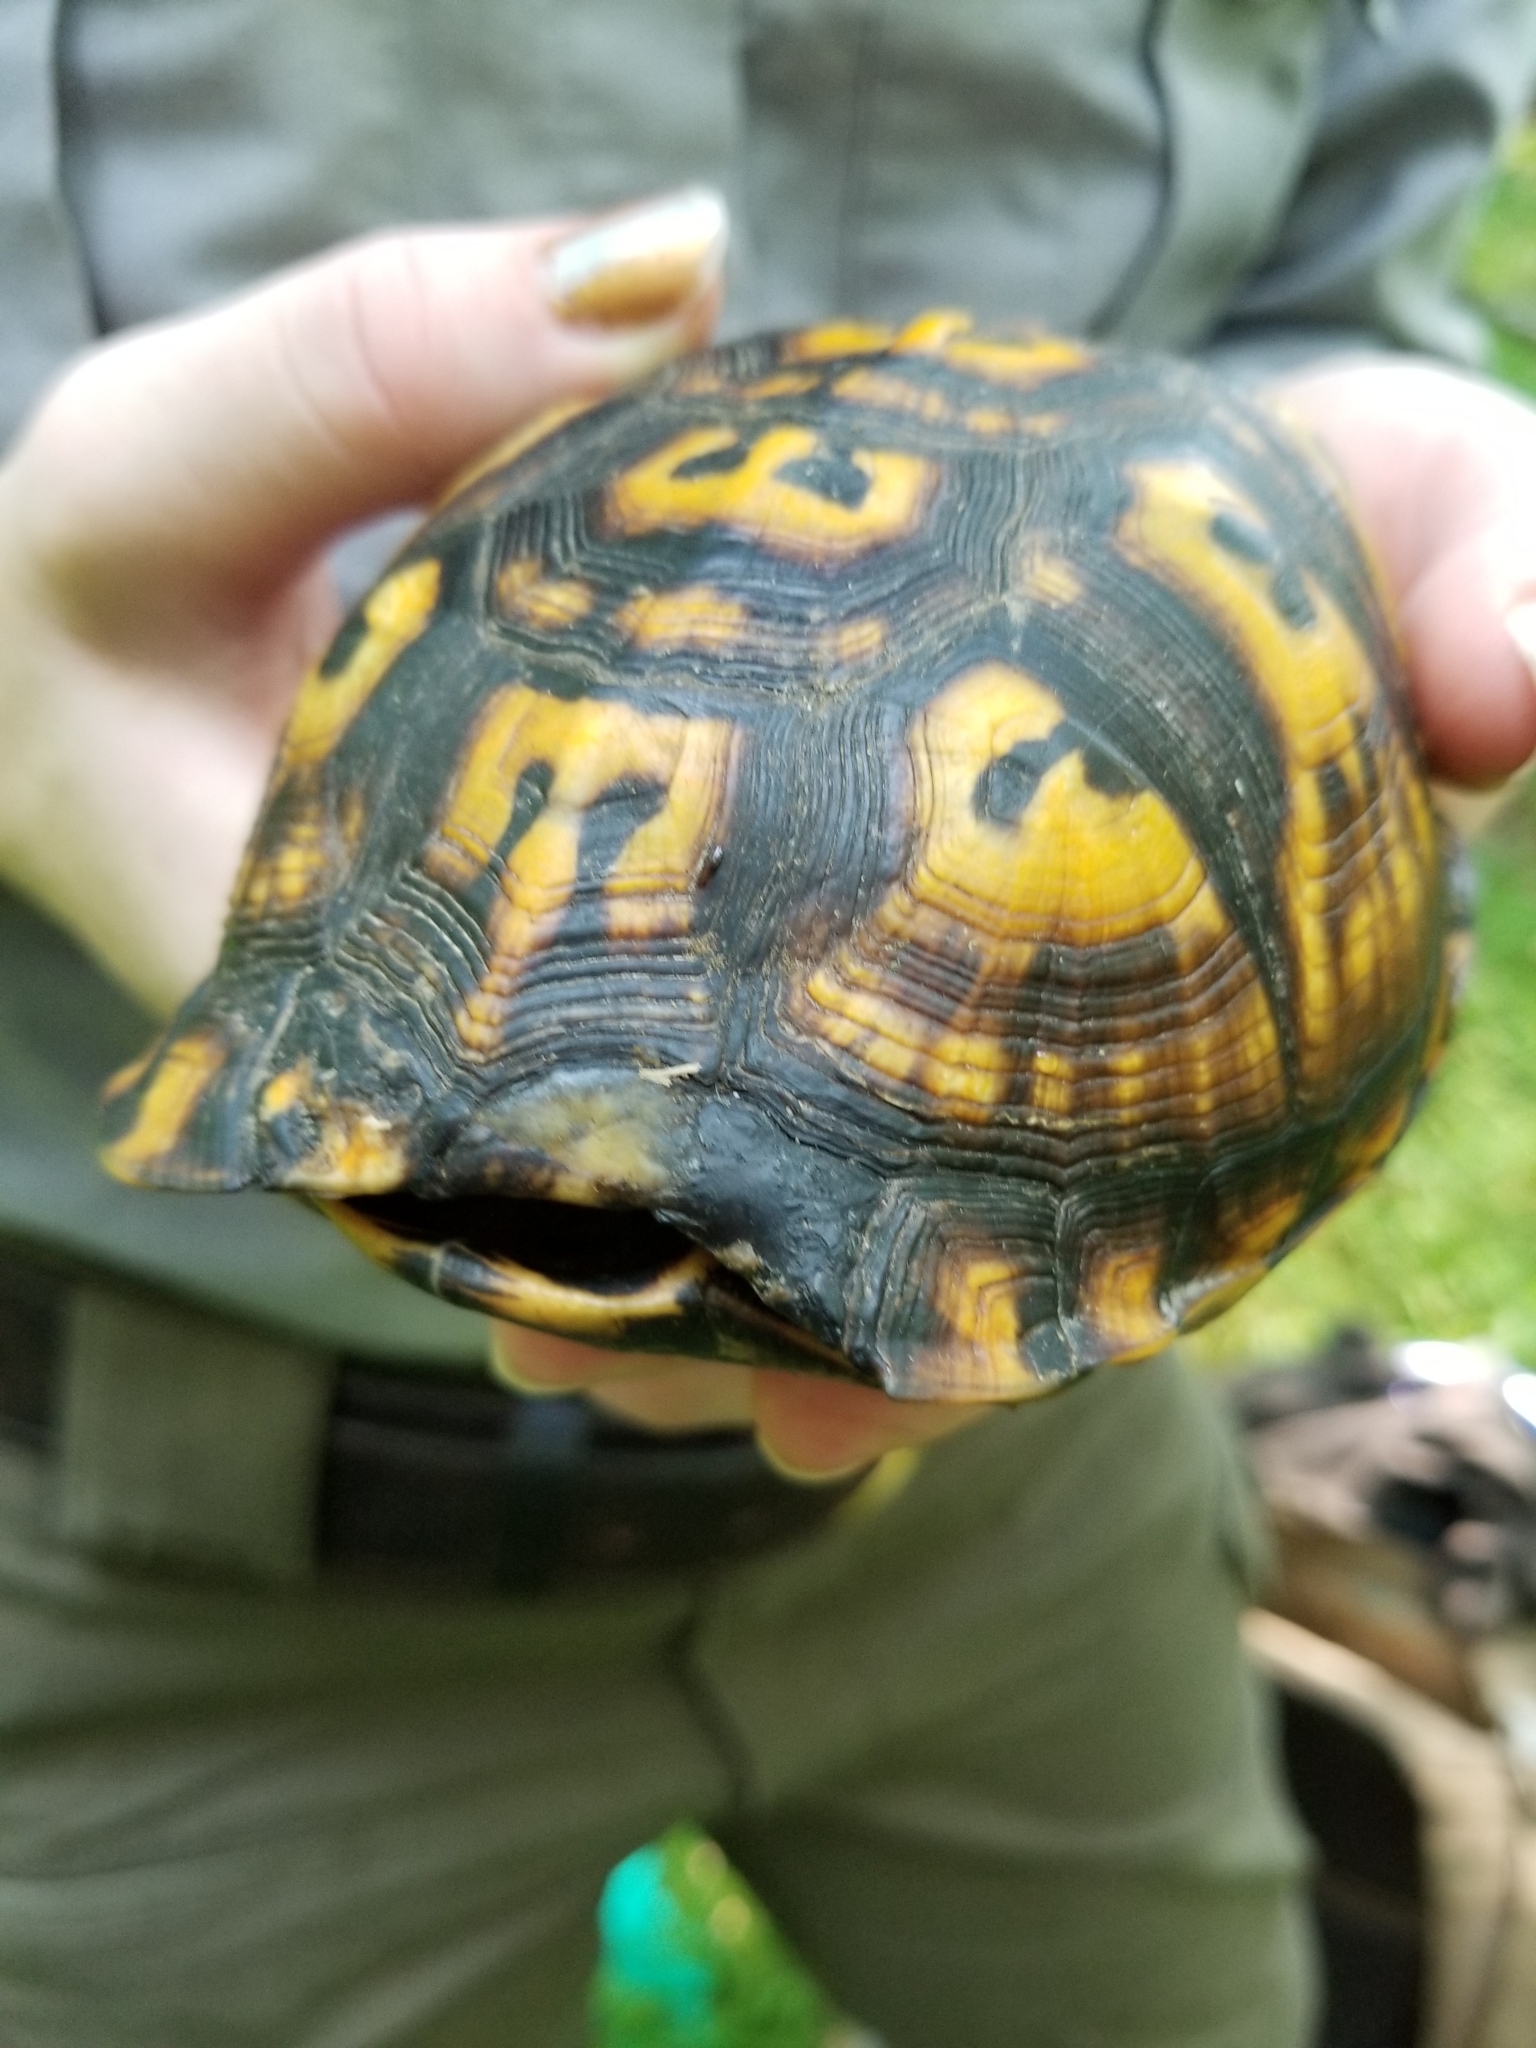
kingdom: Animalia
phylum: Chordata
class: Testudines
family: Emydidae
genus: Terrapene
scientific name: Terrapene carolina
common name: Common box turtle
